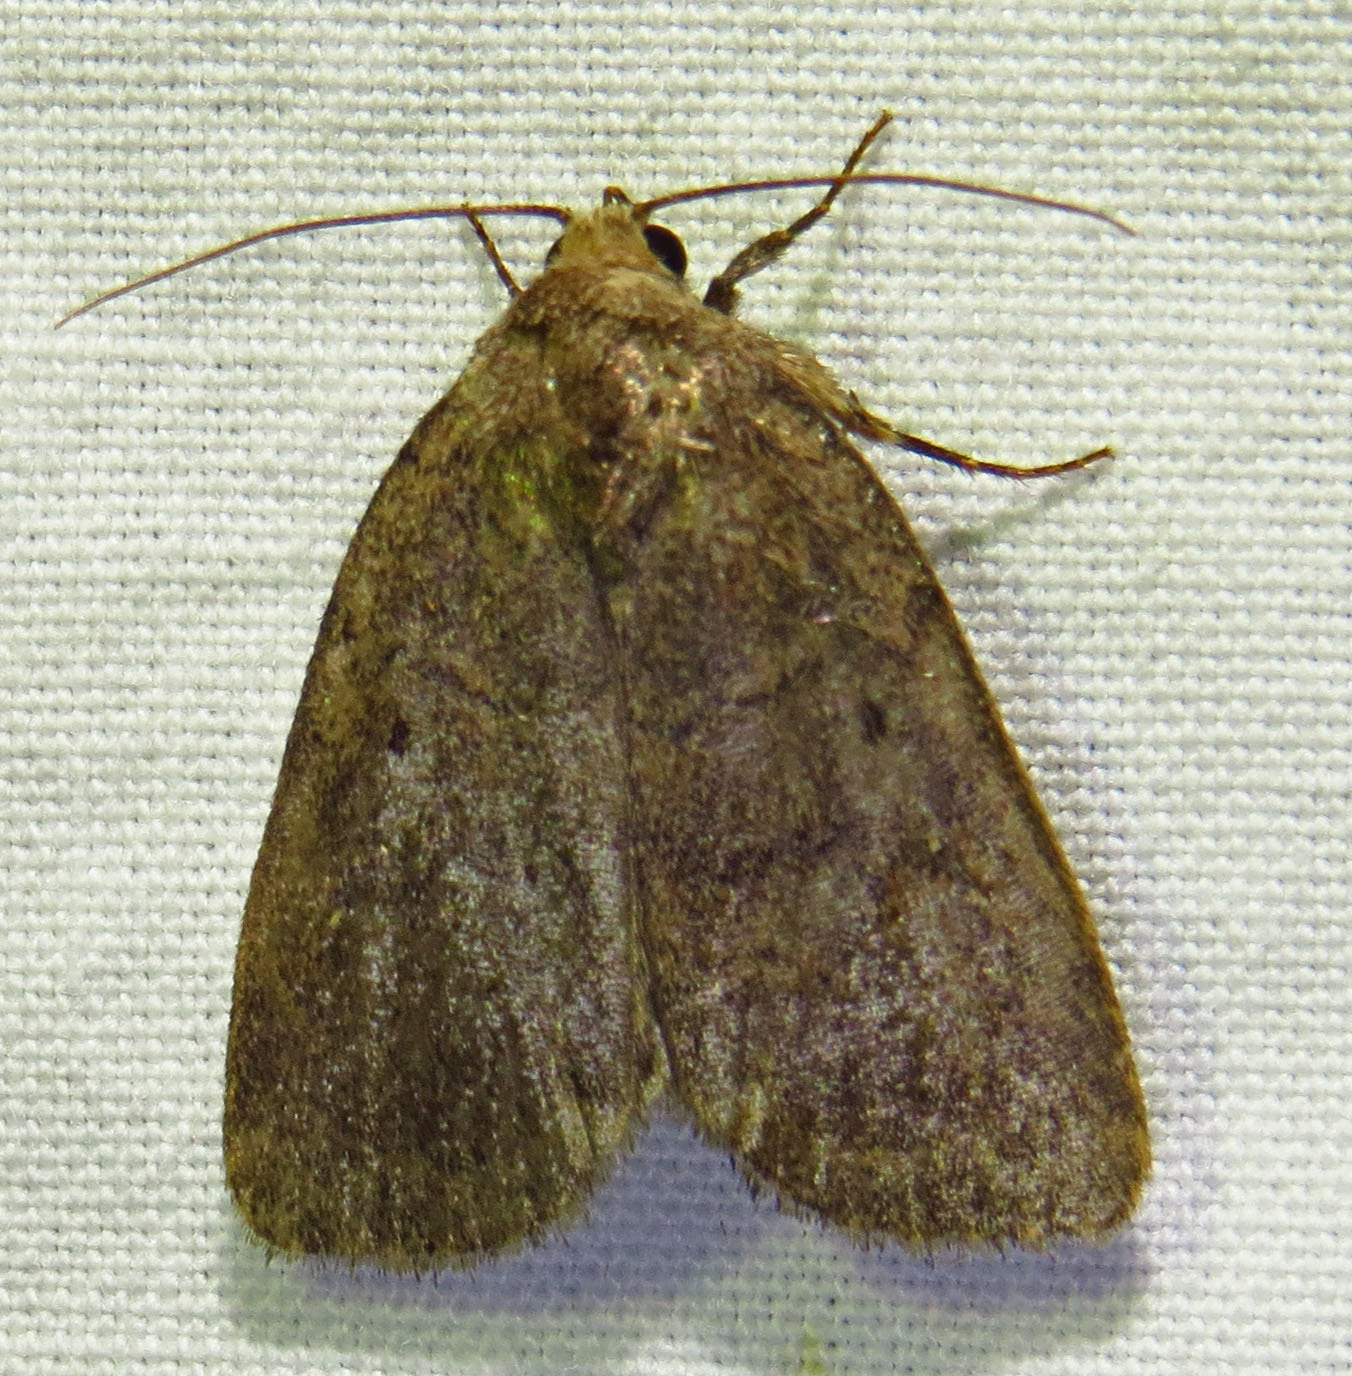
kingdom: Animalia
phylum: Arthropoda
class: Insecta
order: Lepidoptera
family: Noctuidae
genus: Athetis
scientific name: Athetis tarda
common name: Slowpoke moth
